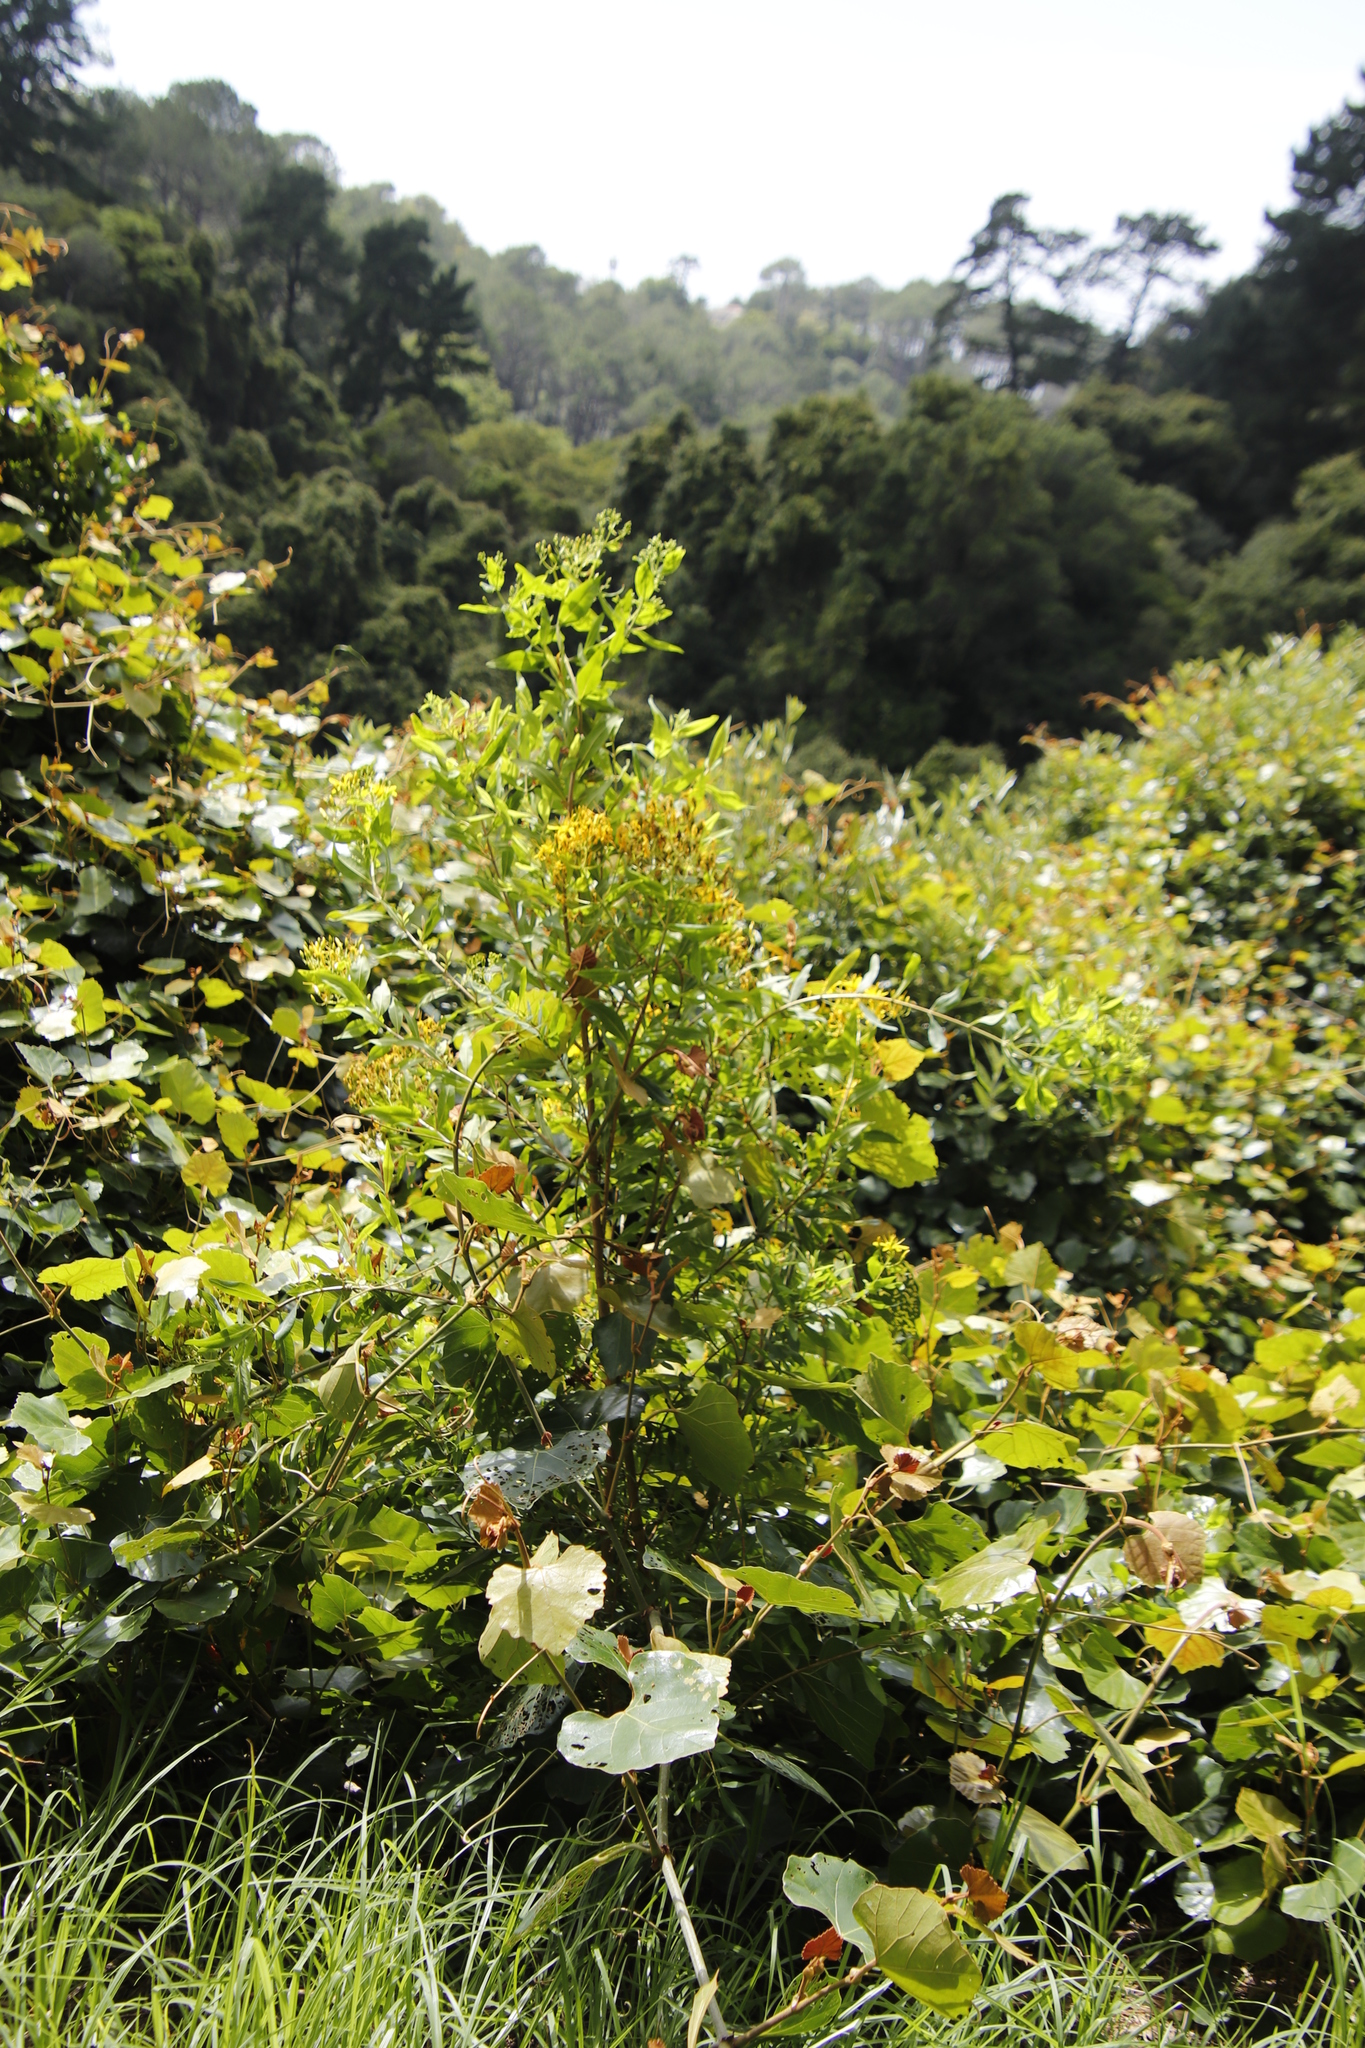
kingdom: Plantae
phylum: Tracheophyta
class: Magnoliopsida
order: Malpighiales
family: Hypericaceae
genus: Hypericum
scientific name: Hypericum canariense
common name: Canary island st. johnswort
